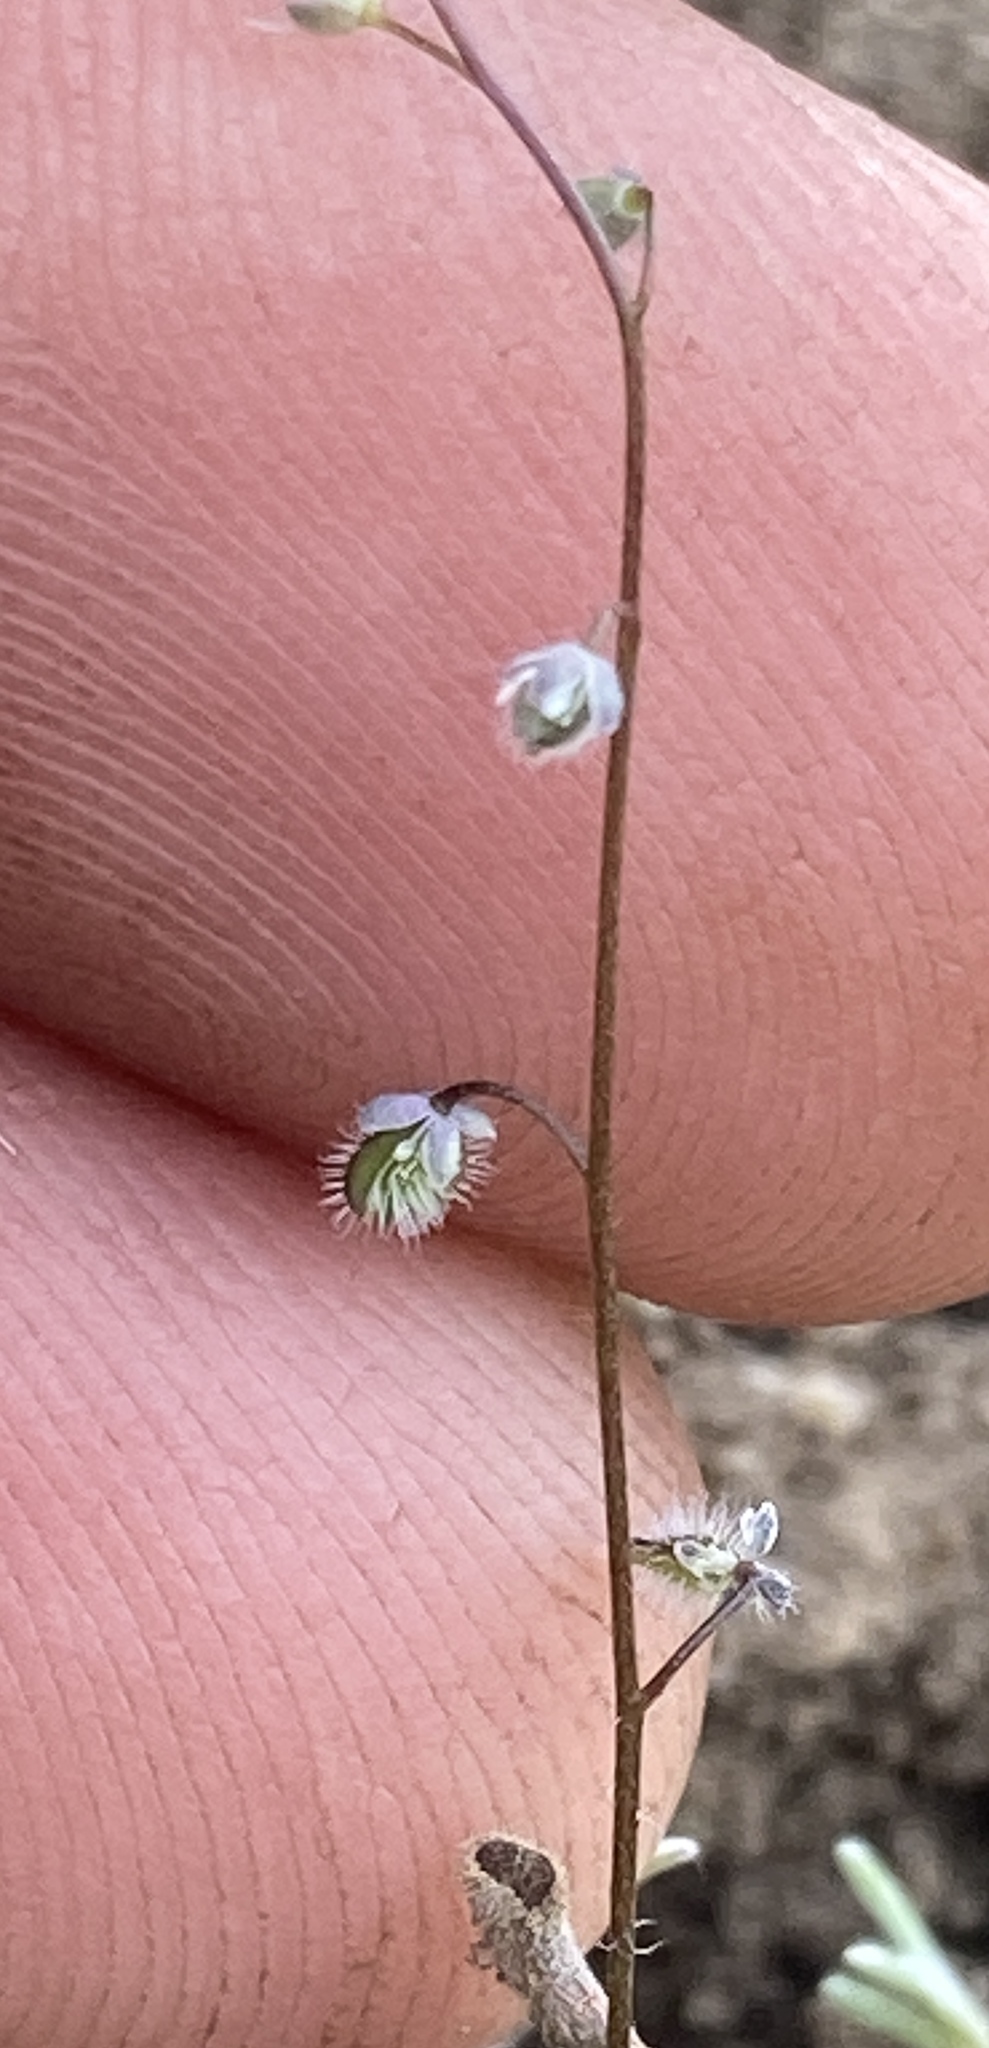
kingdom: Plantae
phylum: Tracheophyta
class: Magnoliopsida
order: Brassicales
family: Brassicaceae
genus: Athysanus
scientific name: Athysanus pusillus
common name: Common sandweed
